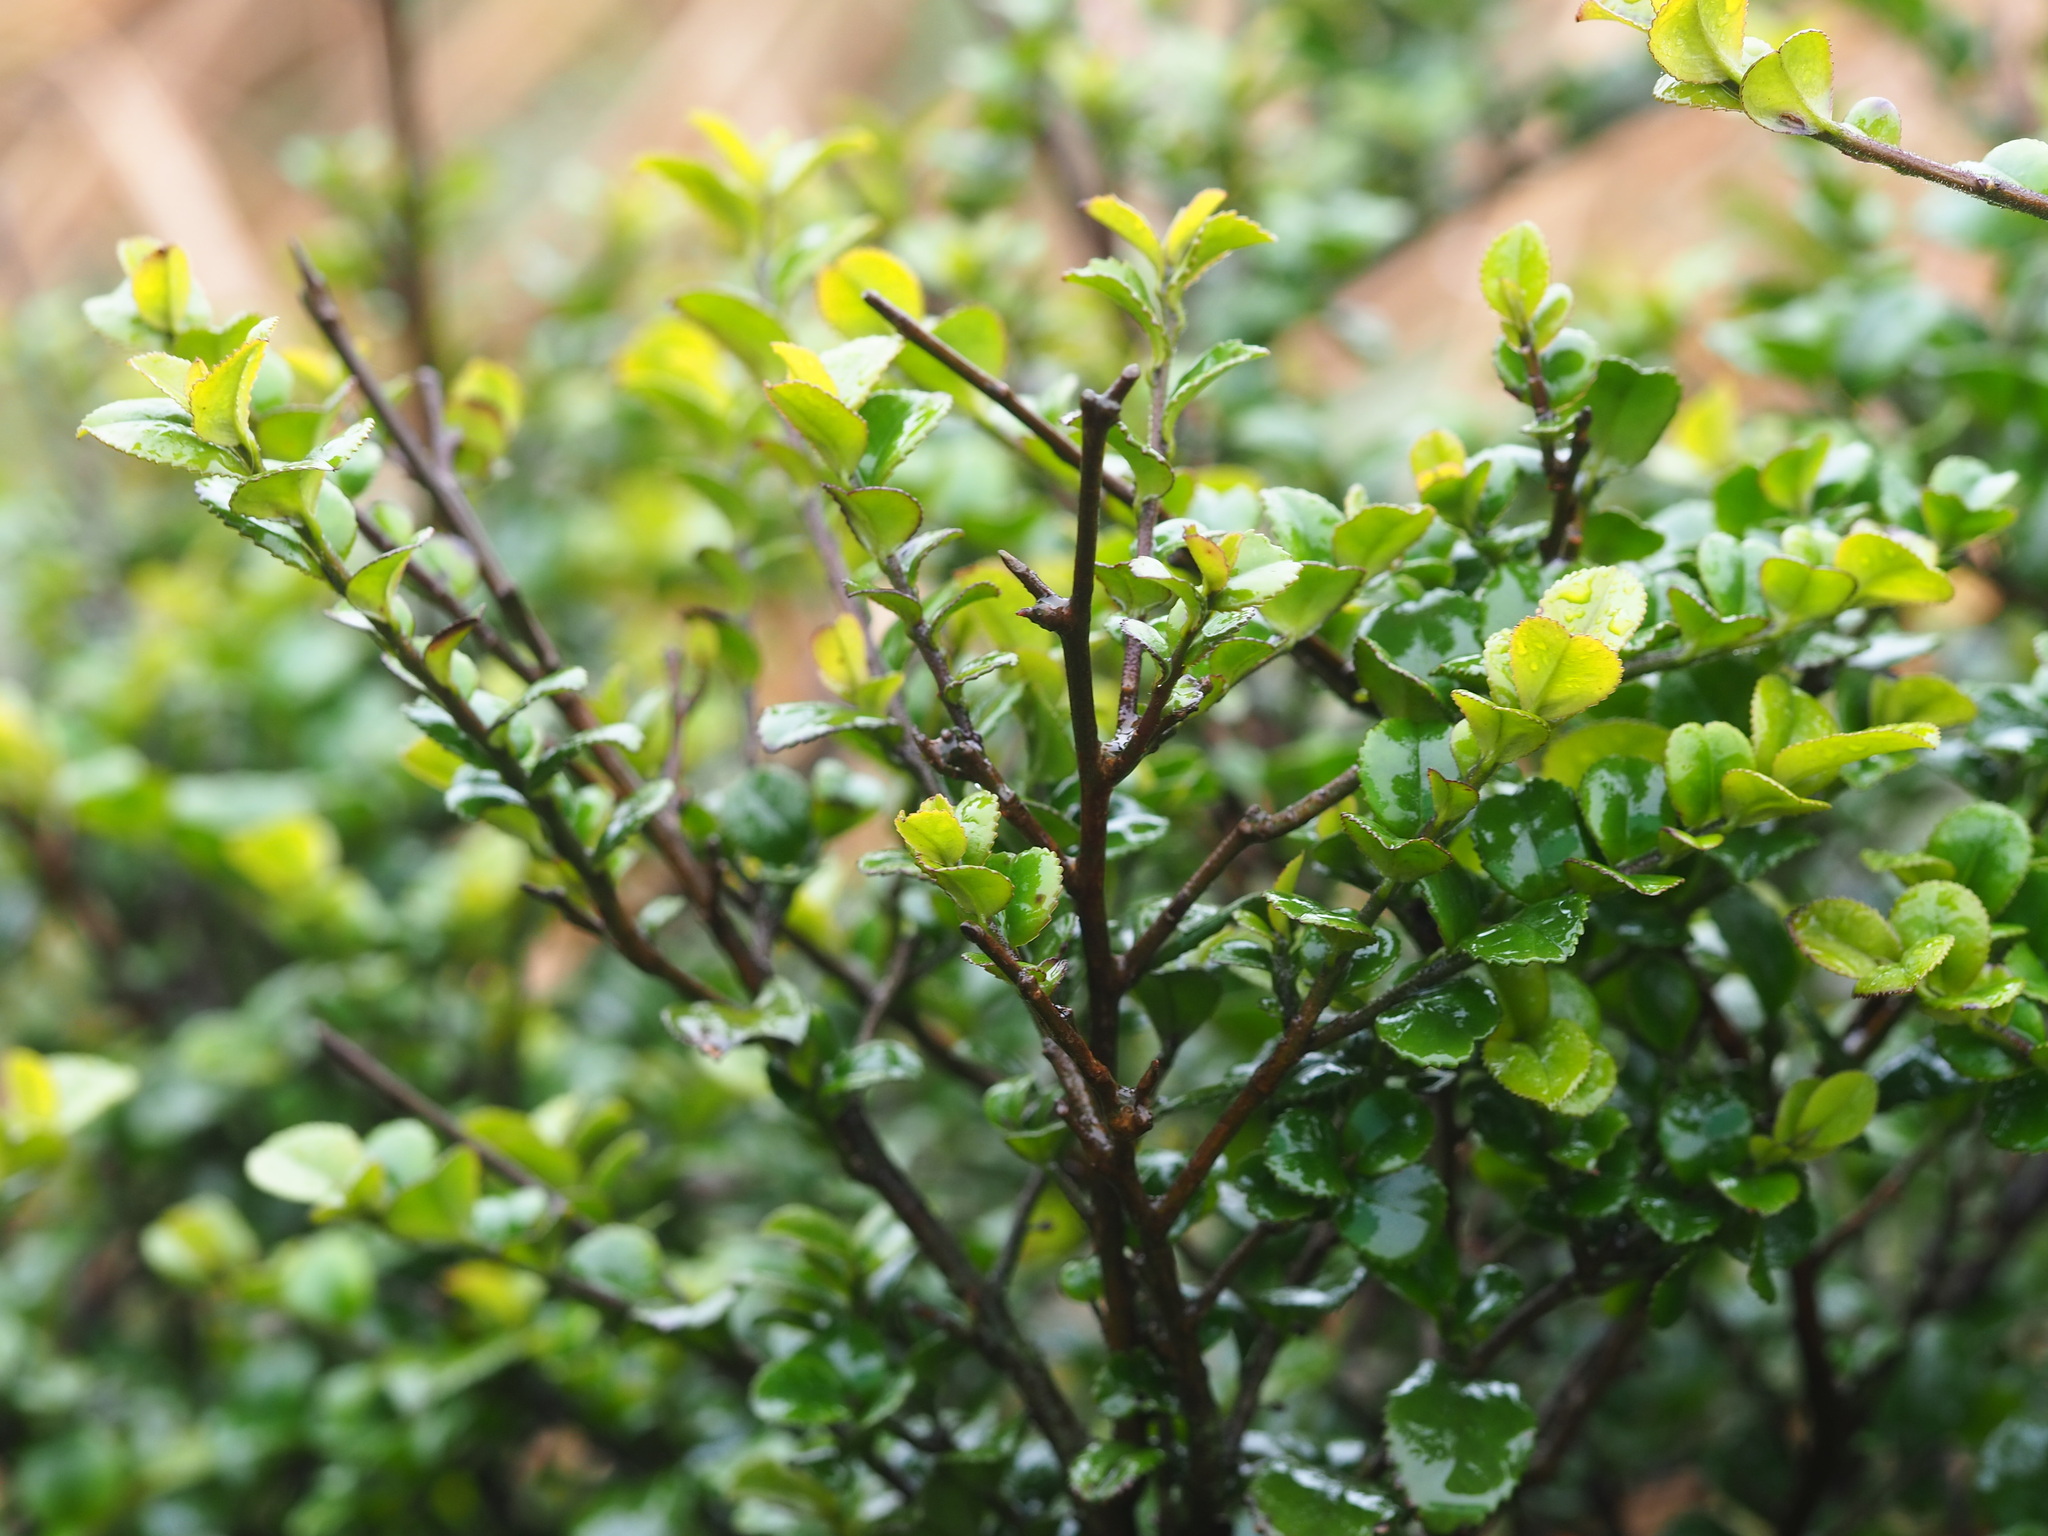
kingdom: Plantae
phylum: Tracheophyta
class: Magnoliopsida
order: Ericales
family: Pentaphylacaceae
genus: Eurya
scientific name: Eurya crenatifolia
